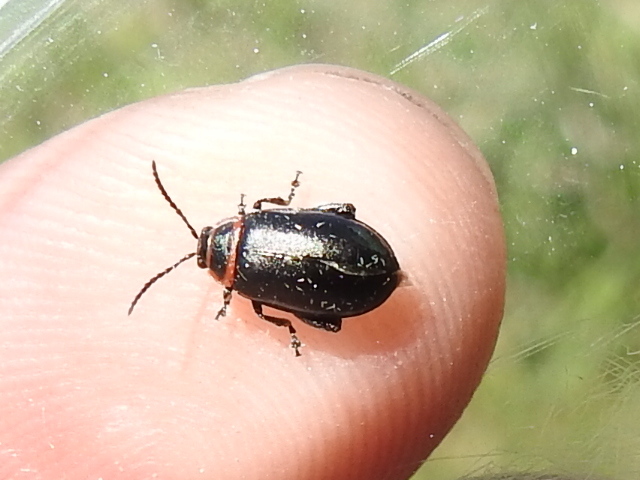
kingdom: Animalia
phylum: Arthropoda
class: Insecta
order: Coleoptera
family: Chrysomelidae
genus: Kuschelina
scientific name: Kuschelina vians
